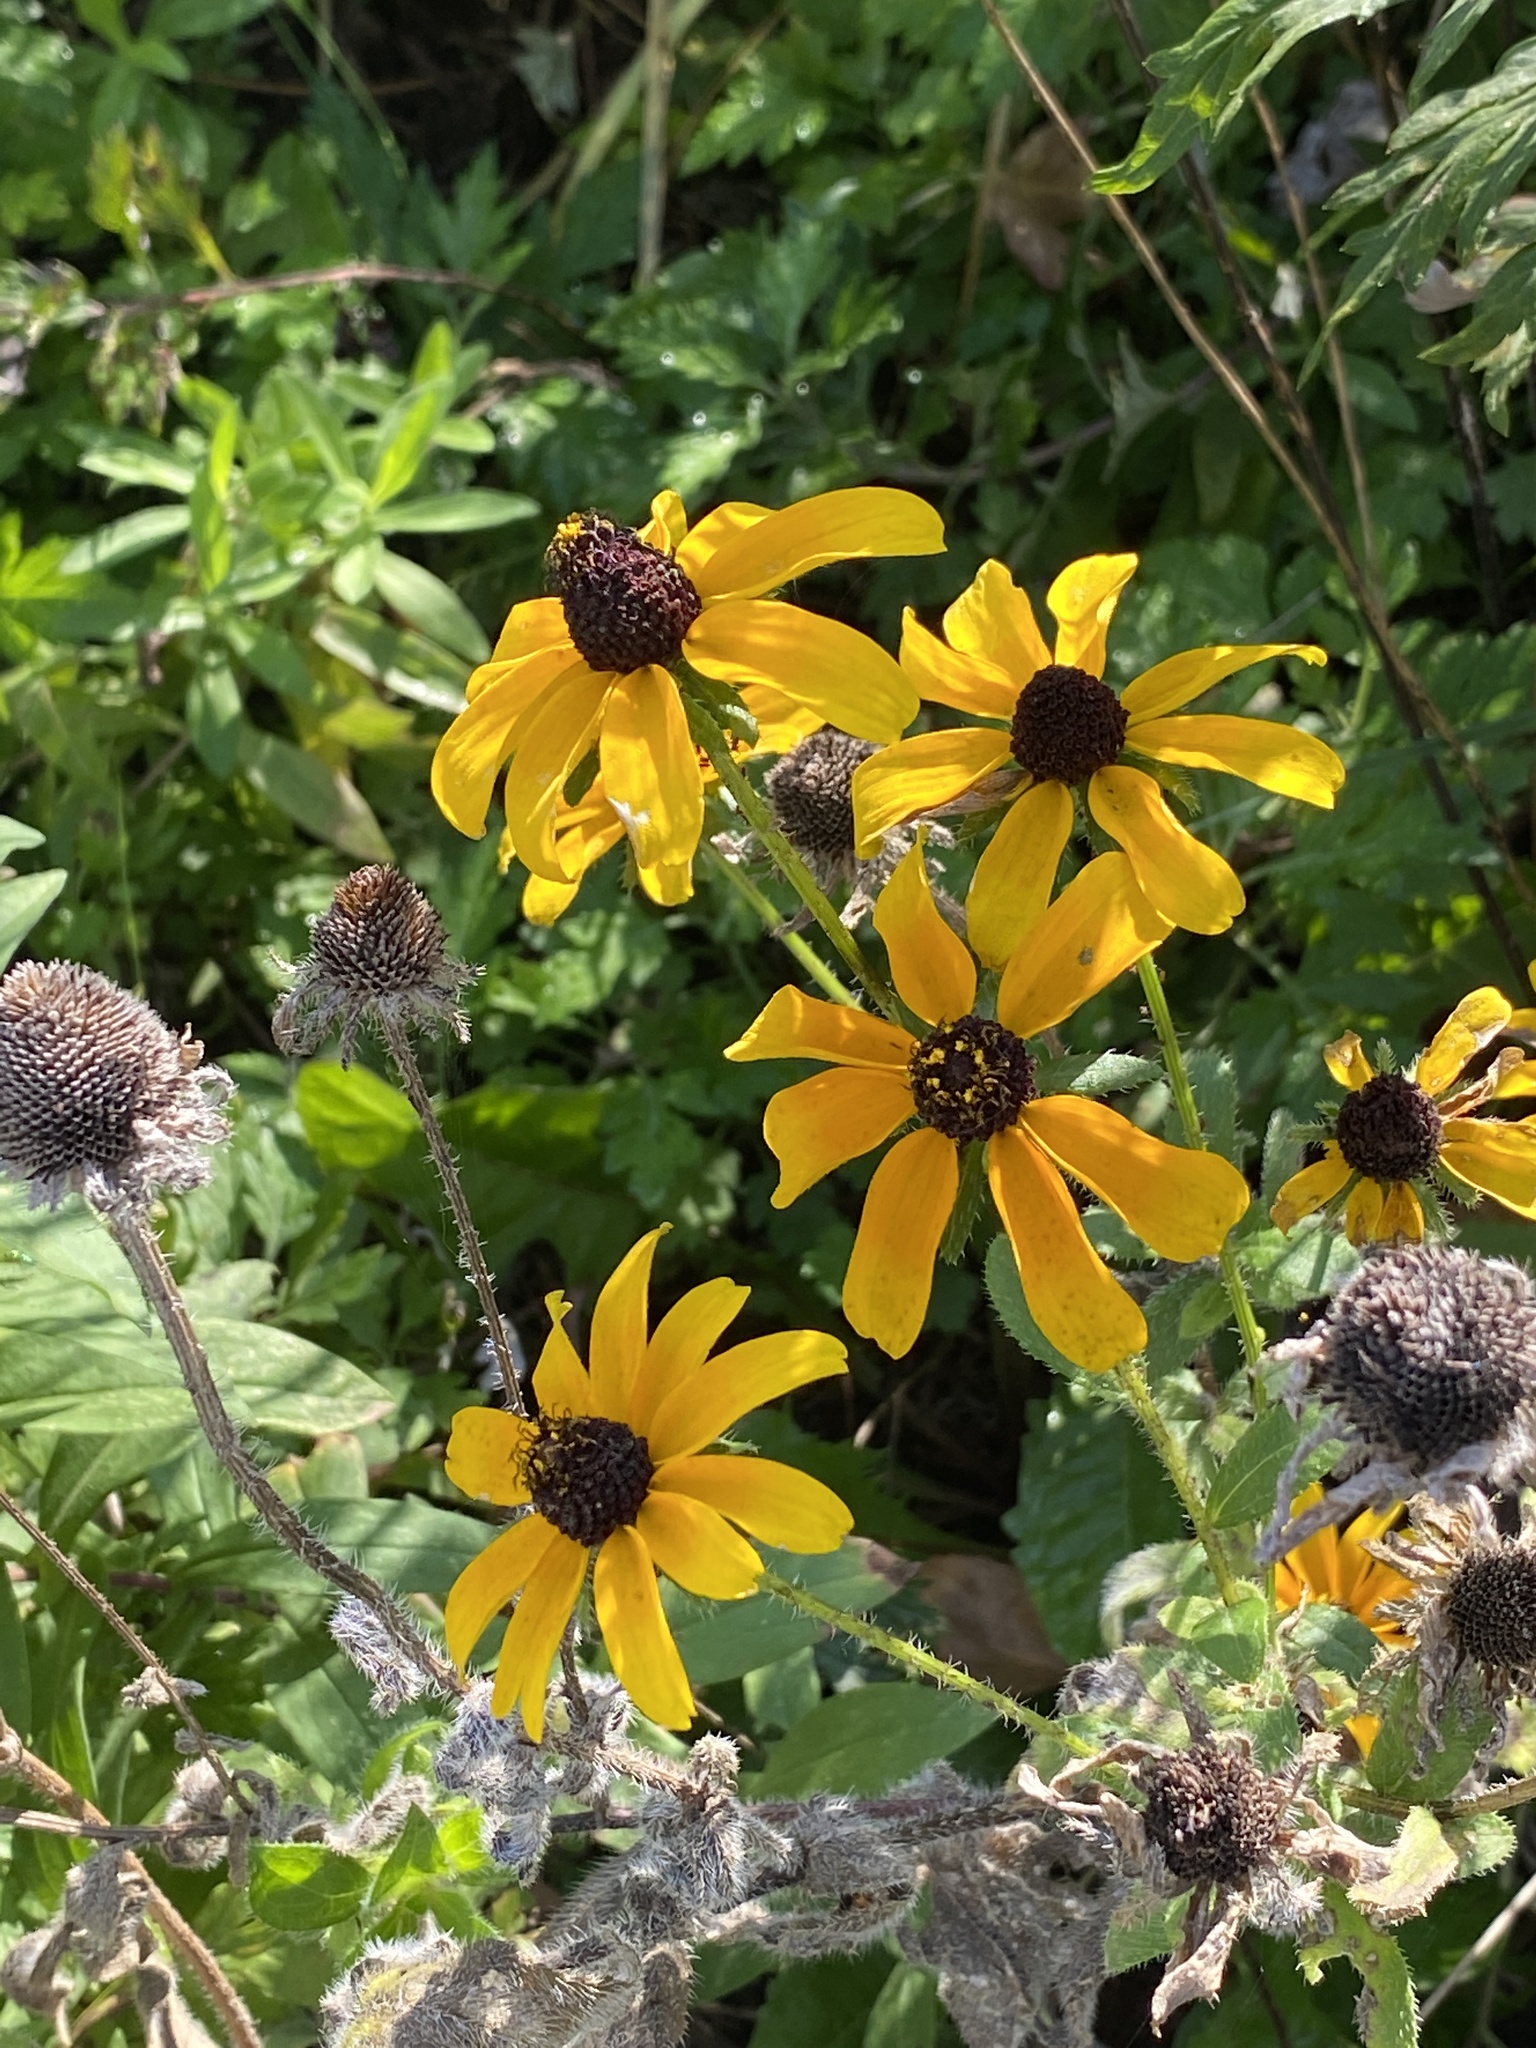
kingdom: Plantae
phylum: Tracheophyta
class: Magnoliopsida
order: Asterales
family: Asteraceae
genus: Rudbeckia
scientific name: Rudbeckia hirta
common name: Black-eyed-susan
